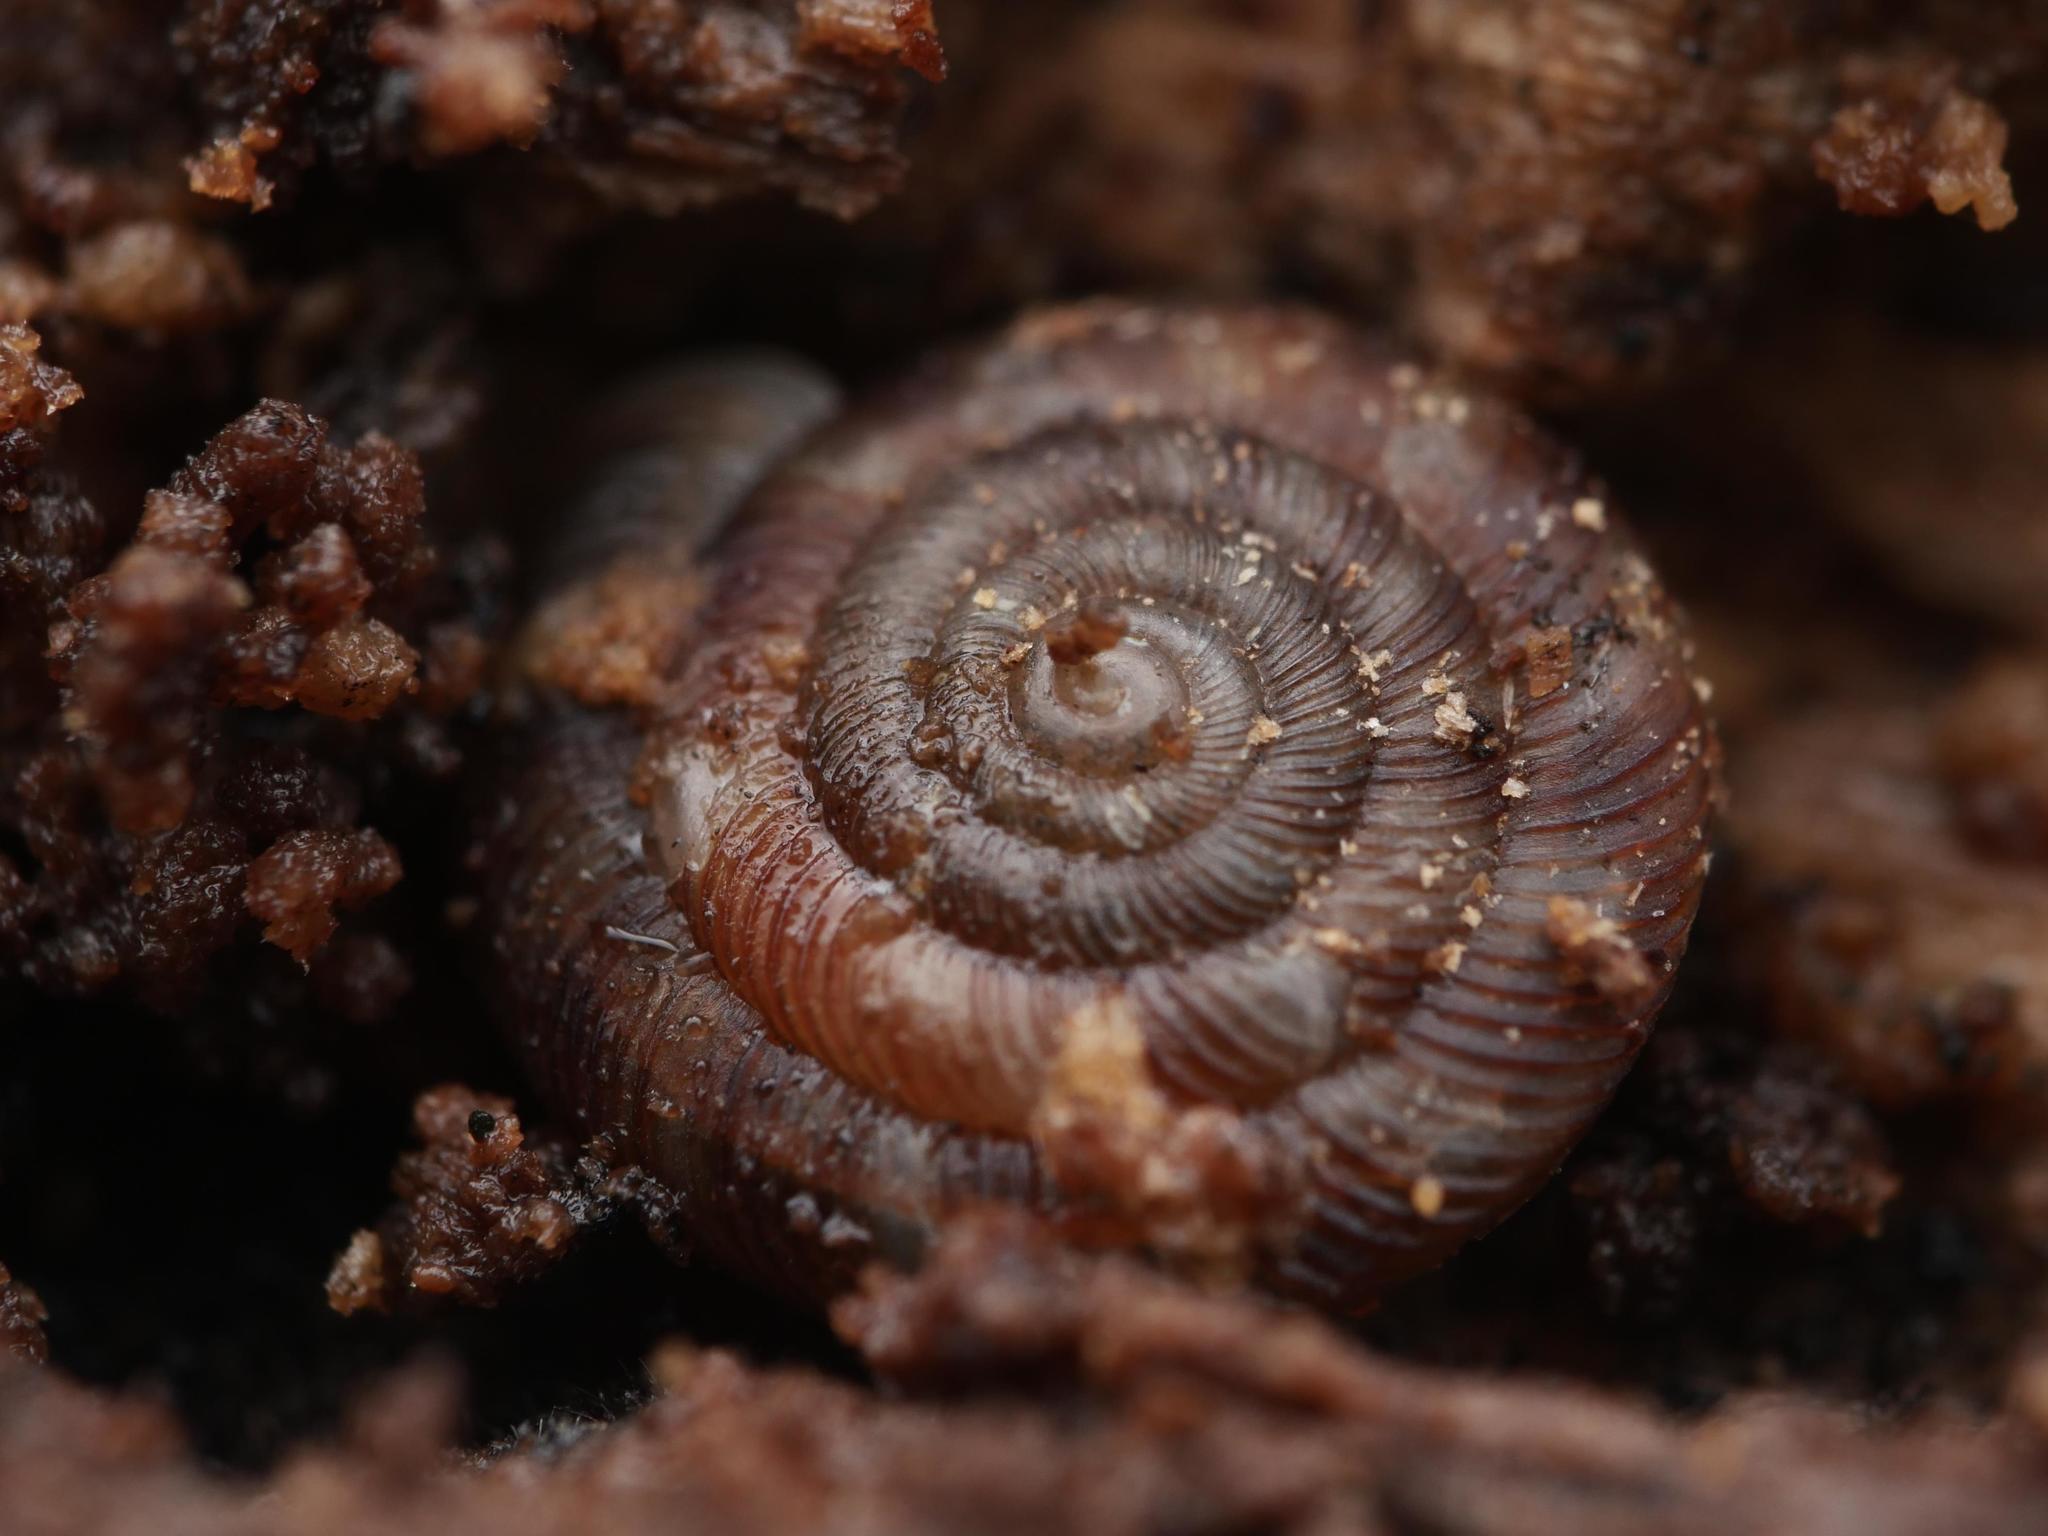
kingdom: Animalia
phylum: Mollusca
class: Gastropoda
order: Stylommatophora
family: Discidae
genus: Discus
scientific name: Discus rotundatus
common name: Rounded snail
